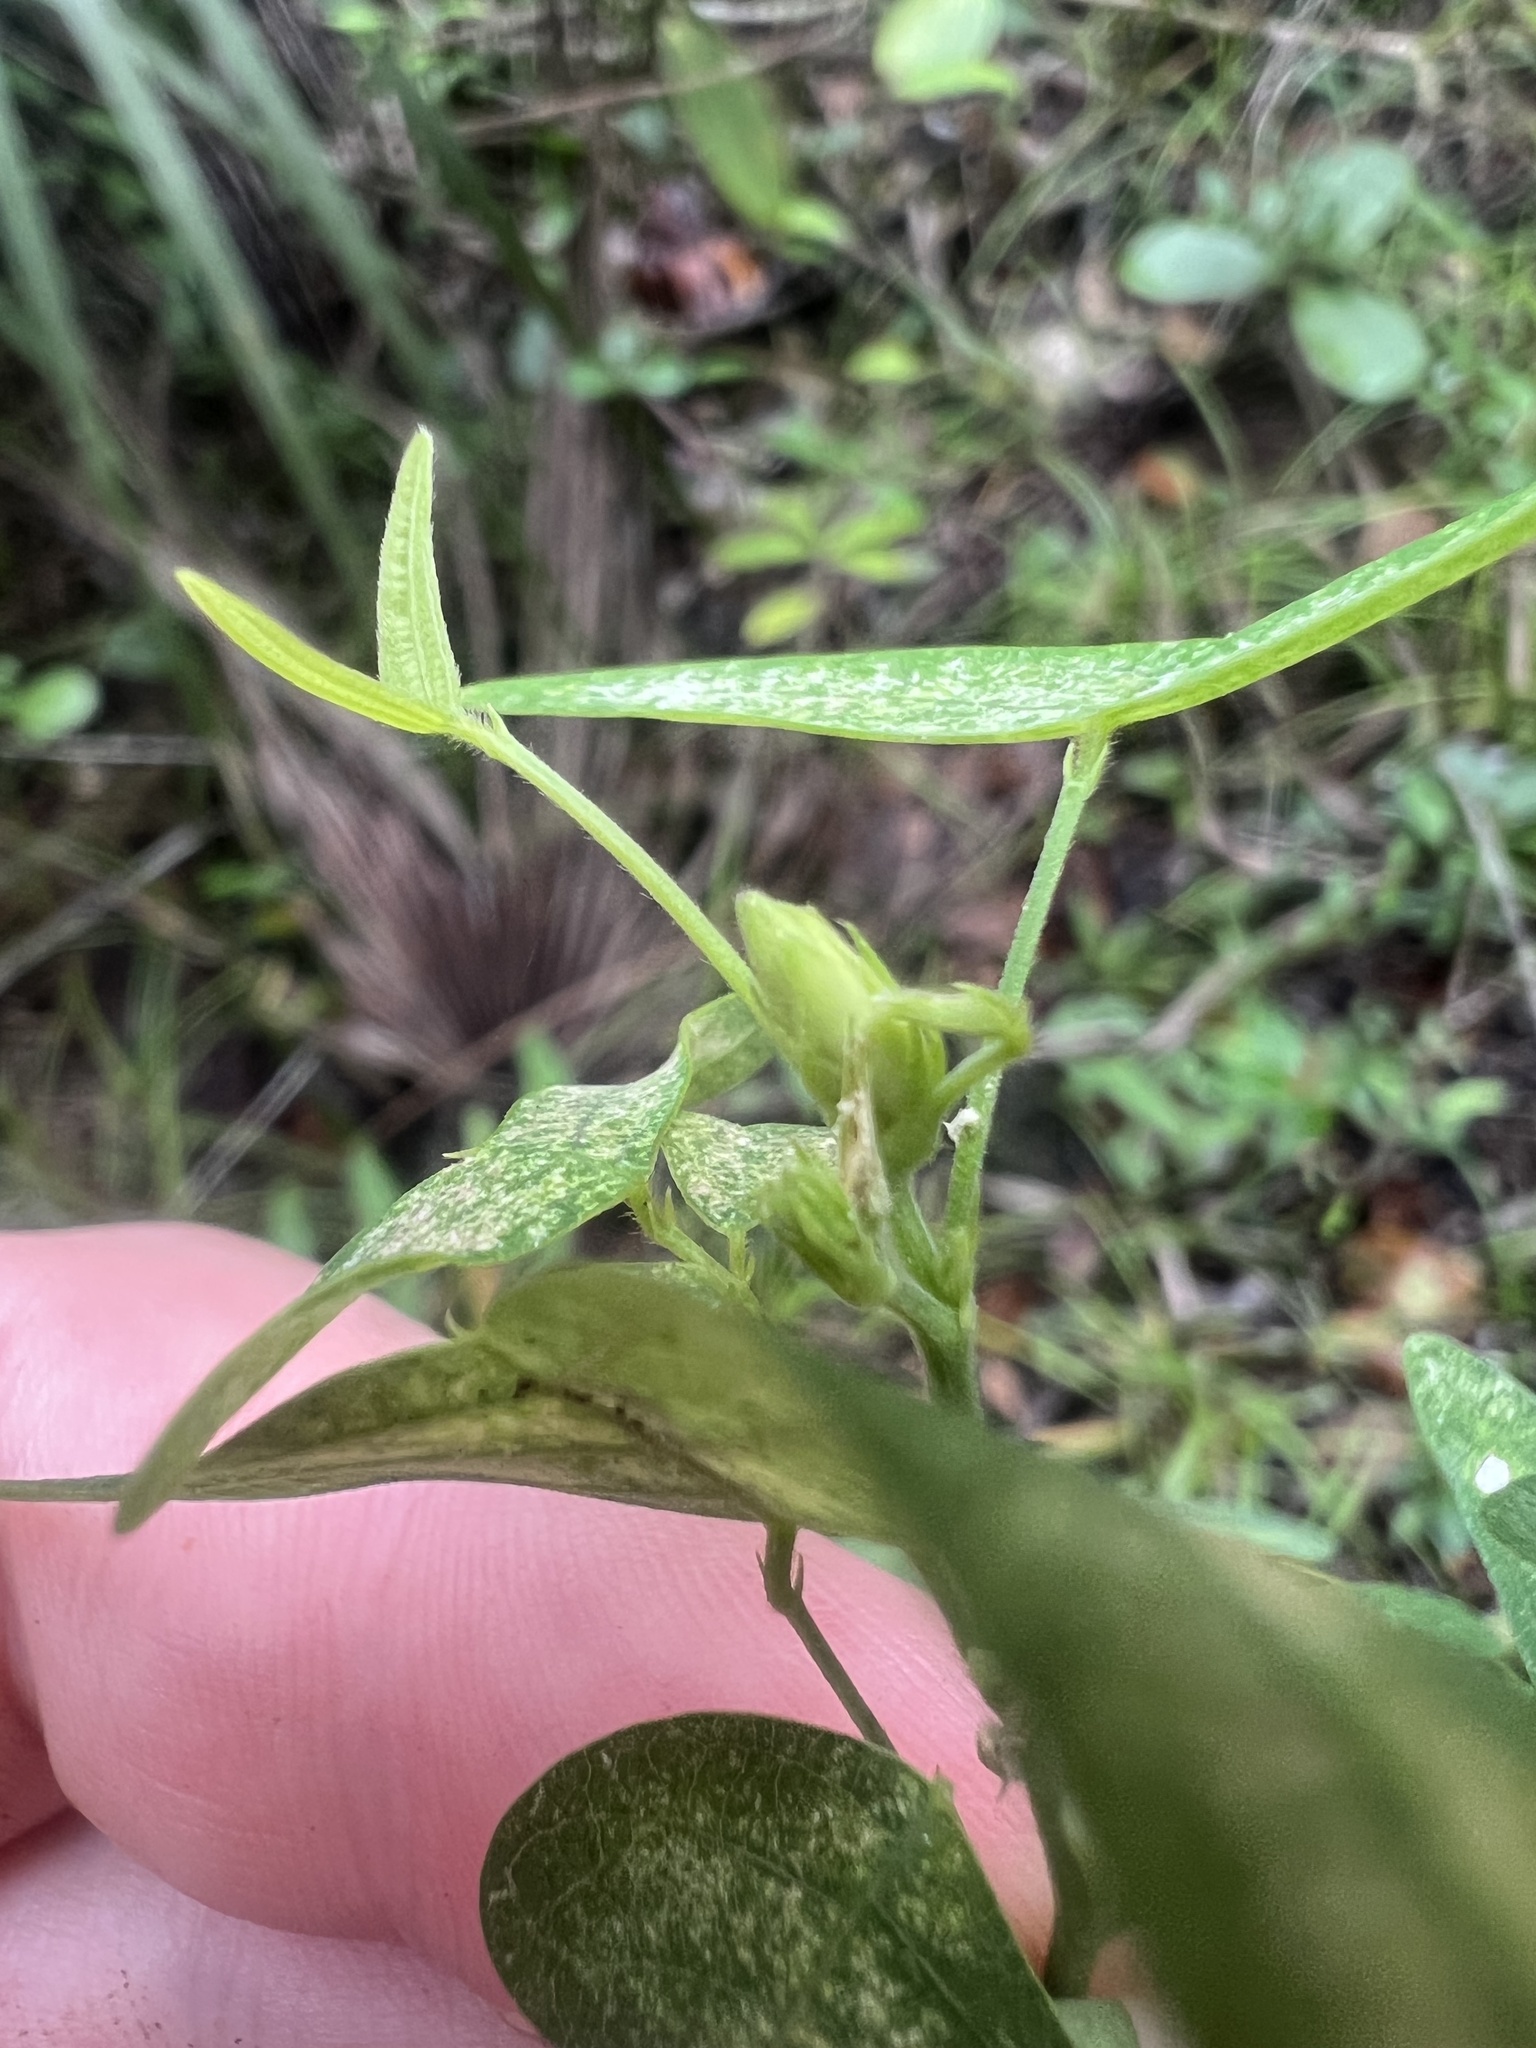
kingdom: Plantae
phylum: Tracheophyta
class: Magnoliopsida
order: Fabales
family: Fabaceae
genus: Christia
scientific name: Christia vespertilionis
